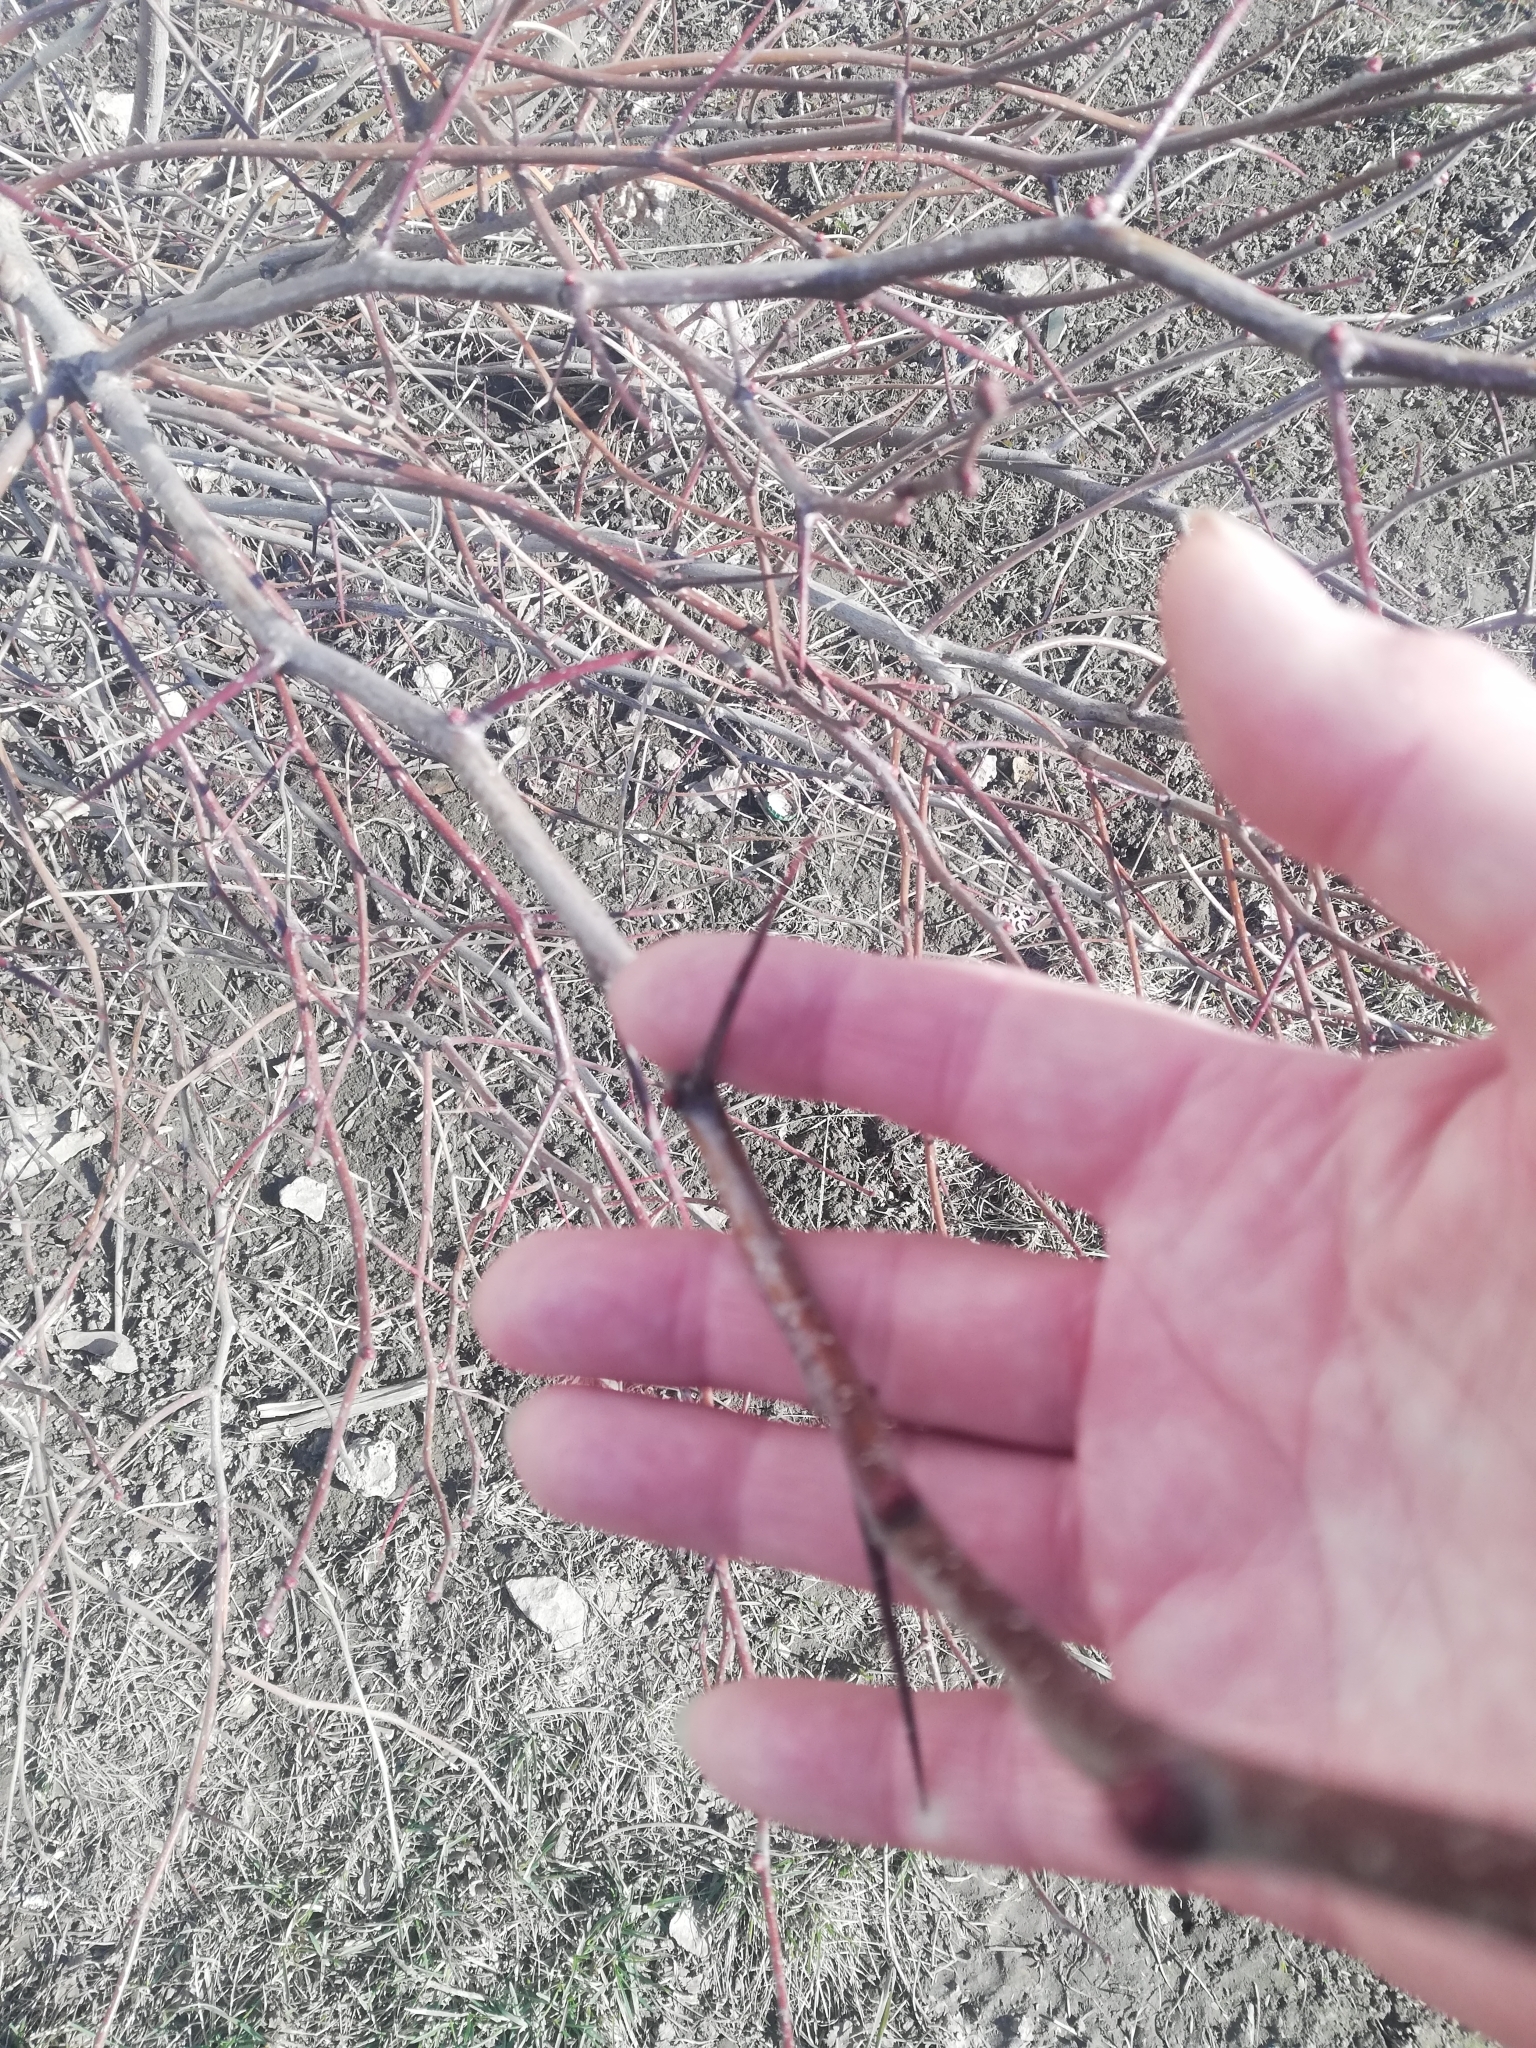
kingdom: Plantae
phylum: Tracheophyta
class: Magnoliopsida
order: Rosales
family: Rosaceae
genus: Crataegus
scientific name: Crataegus sanguinea
